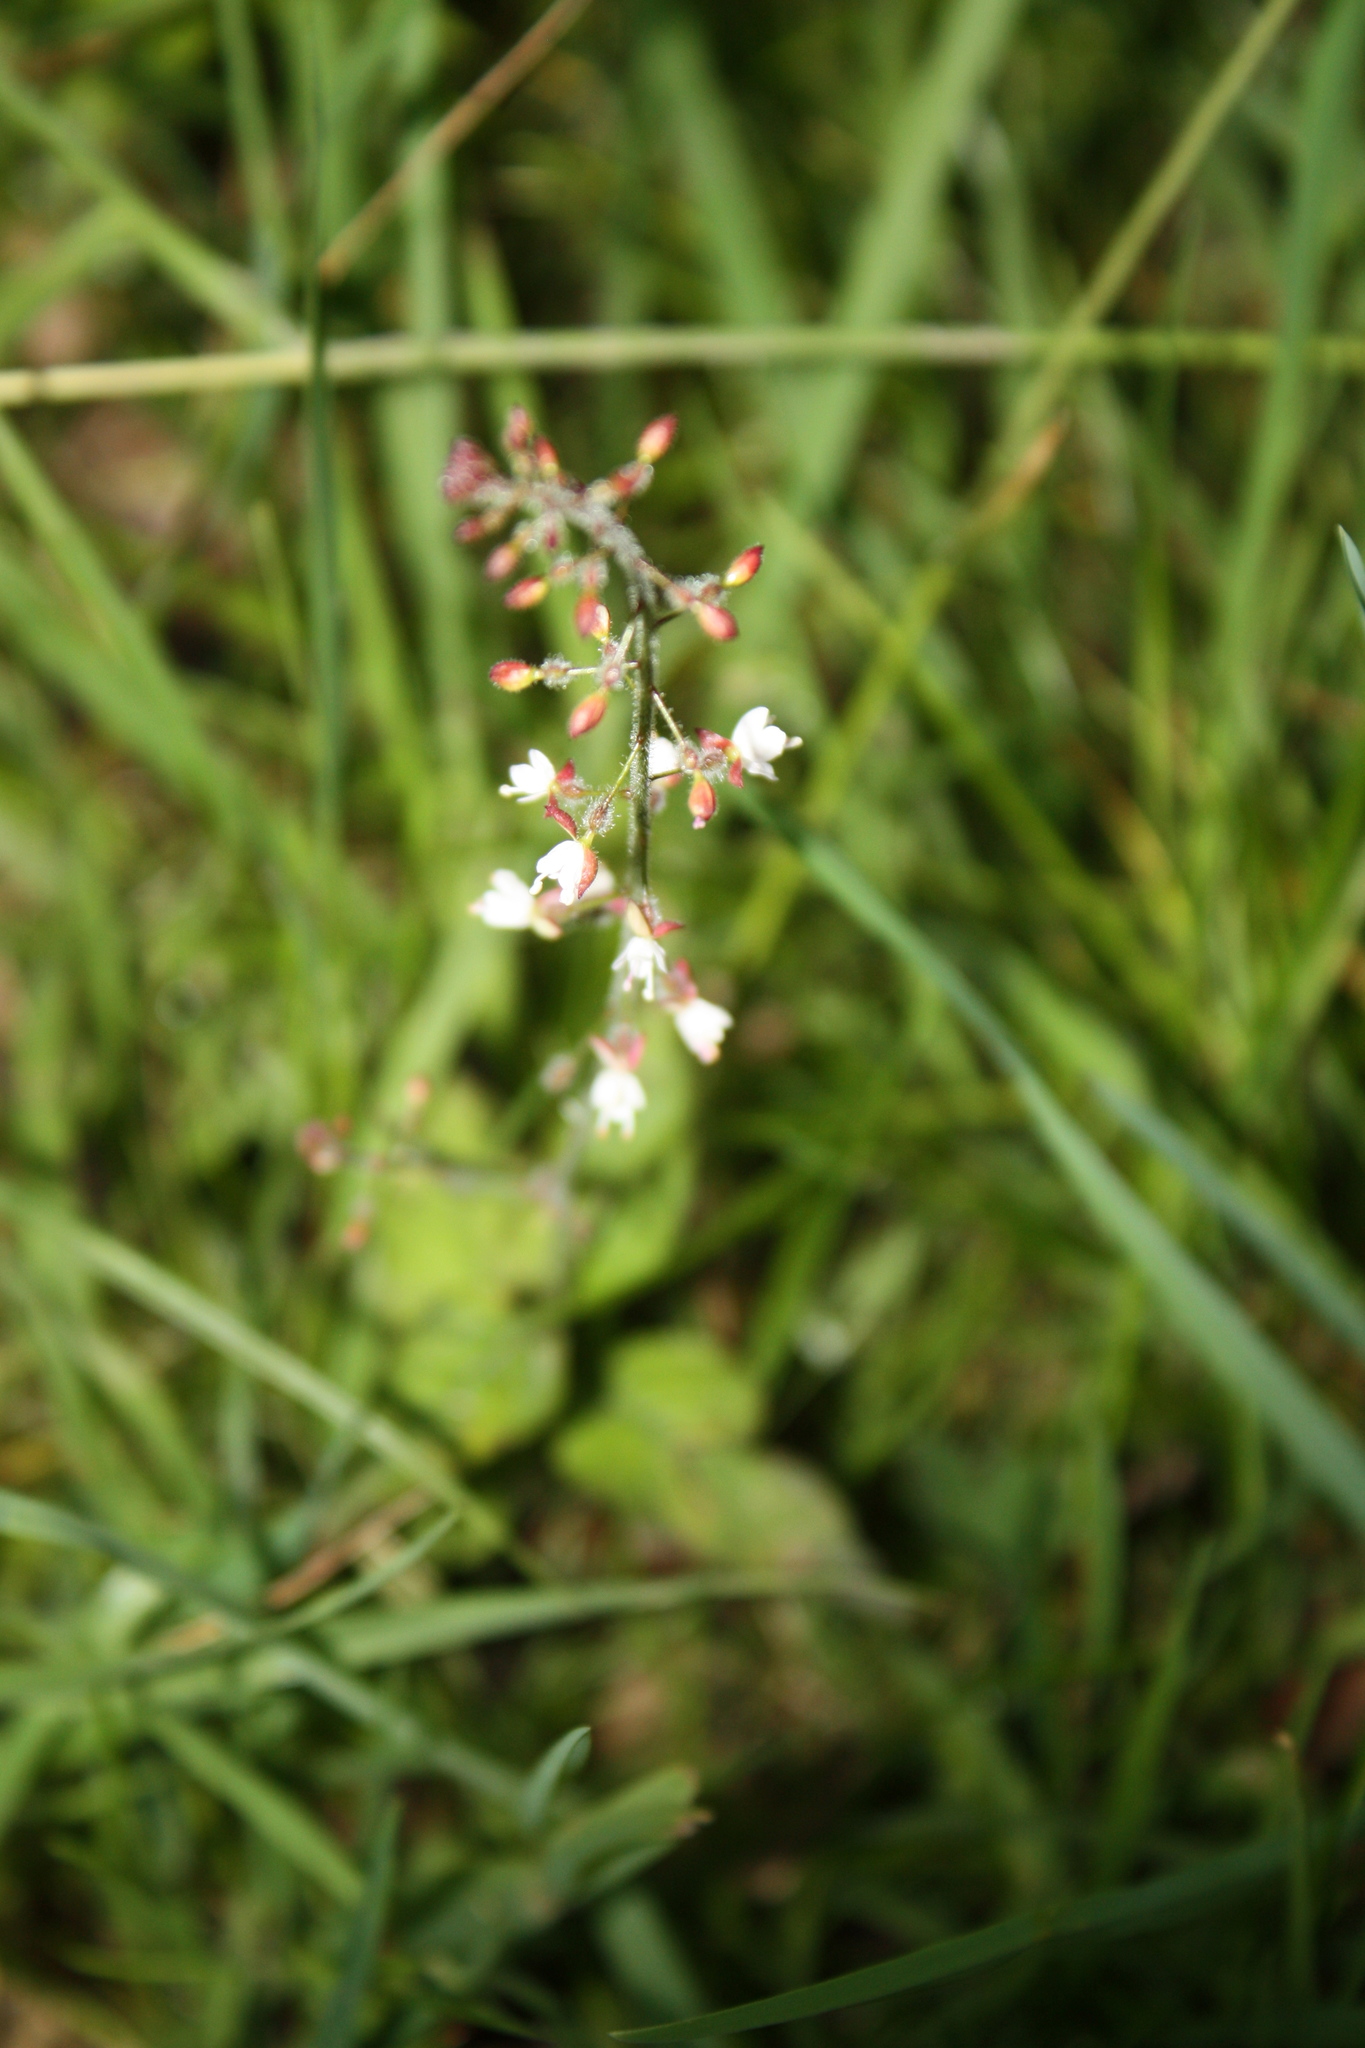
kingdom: Plantae
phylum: Tracheophyta
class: Magnoliopsida
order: Myrtales
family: Onagraceae
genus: Circaea
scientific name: Circaea lutetiana
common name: Enchanter's-nightshade
